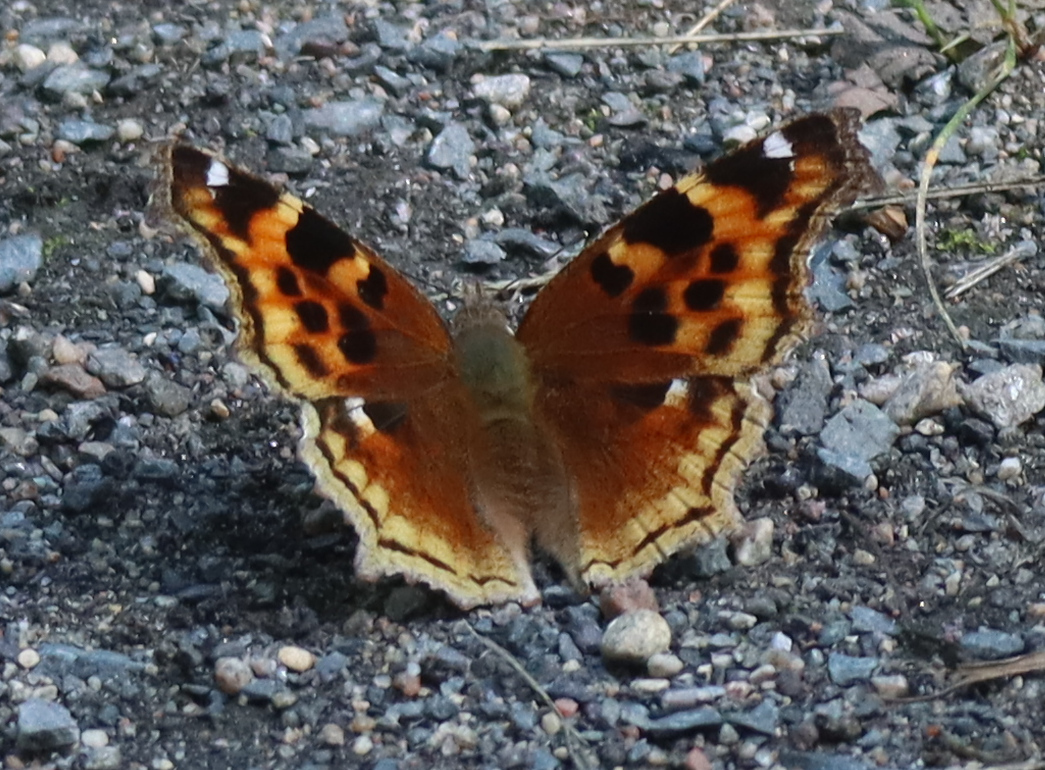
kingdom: Animalia
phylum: Arthropoda
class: Insecta
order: Lepidoptera
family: Nymphalidae
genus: Polygonia
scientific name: Polygonia vaualbum
